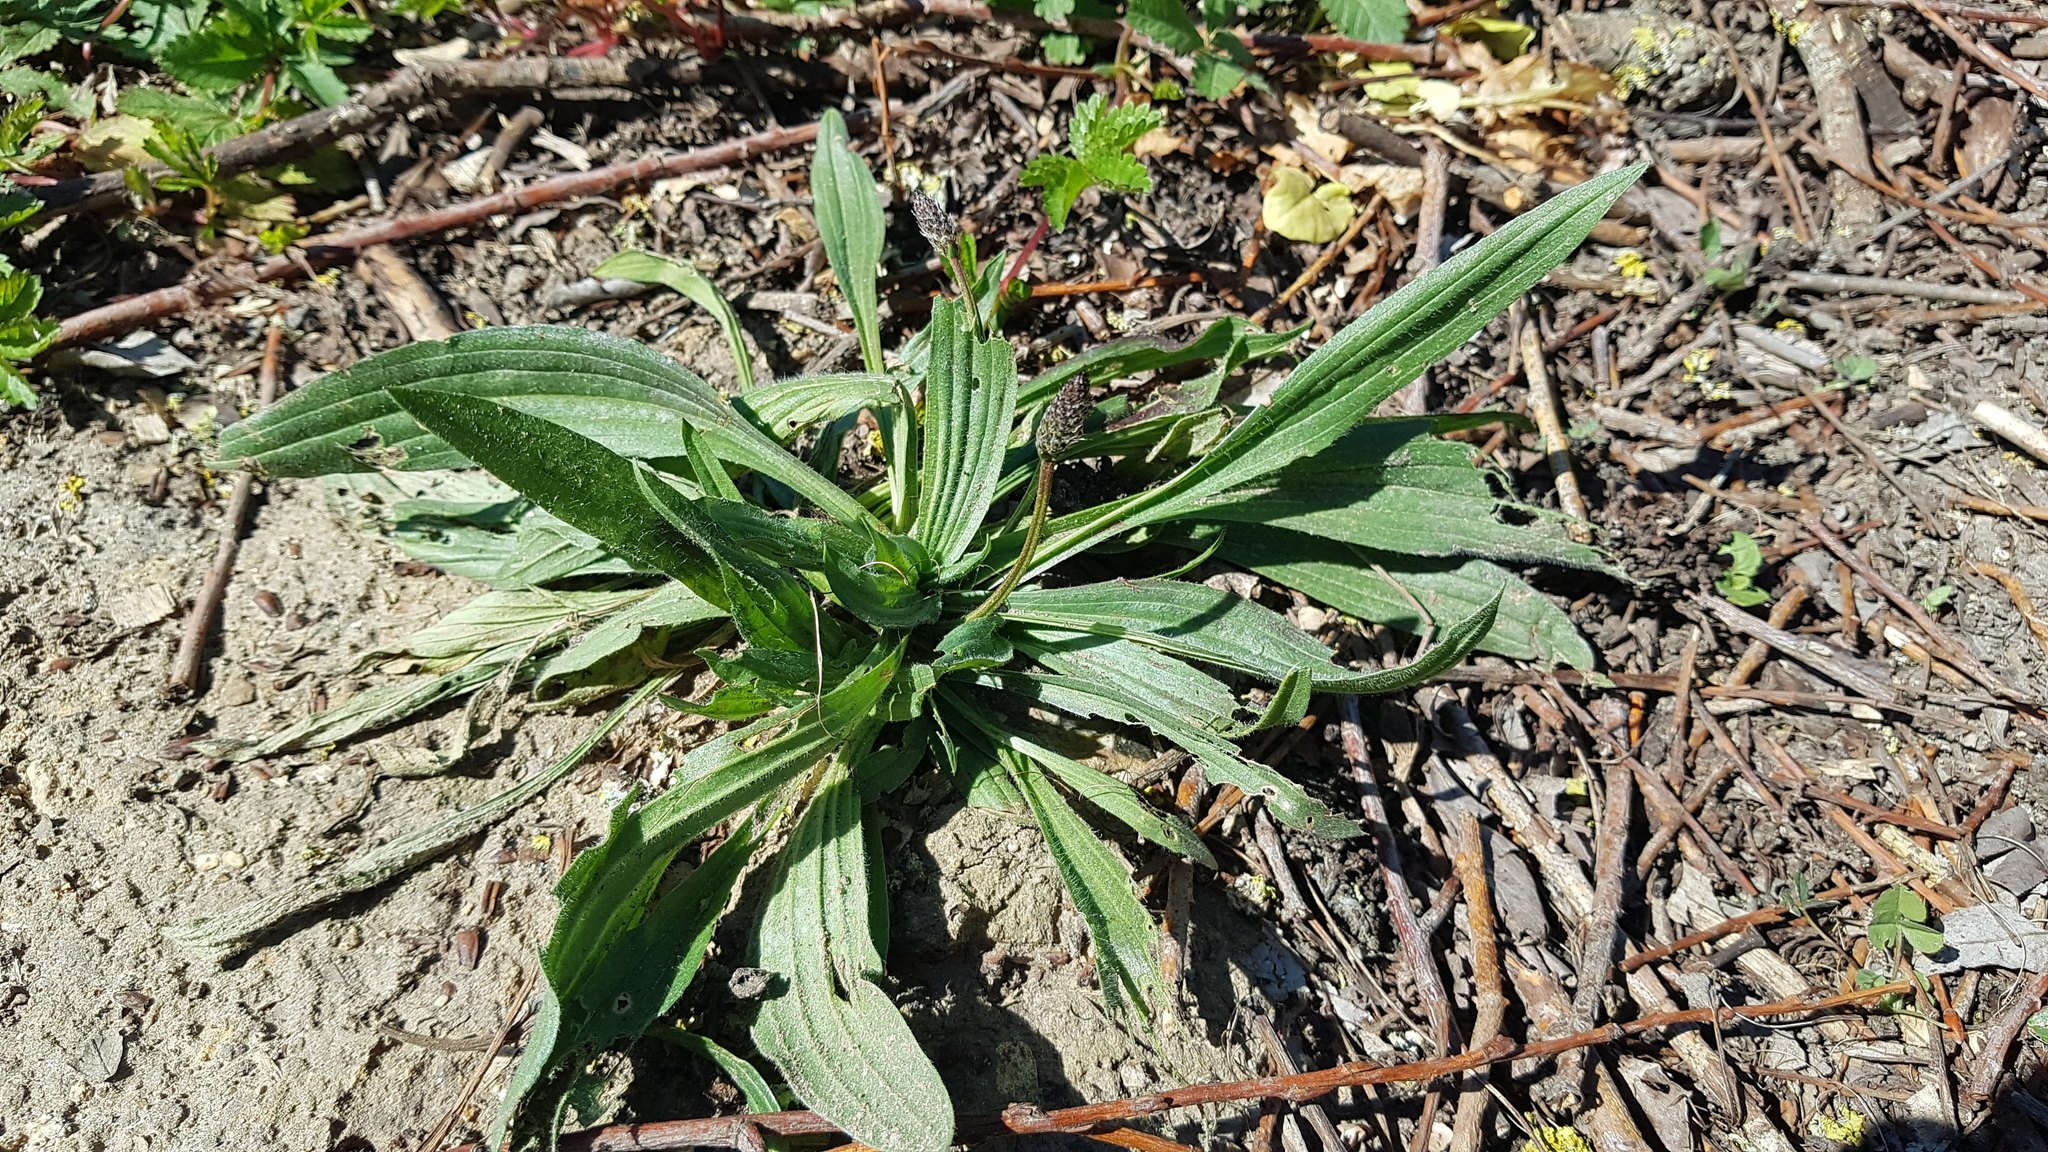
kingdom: Plantae
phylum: Tracheophyta
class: Magnoliopsida
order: Lamiales
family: Plantaginaceae
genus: Plantago
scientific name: Plantago lanceolata
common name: Ribwort plantain
